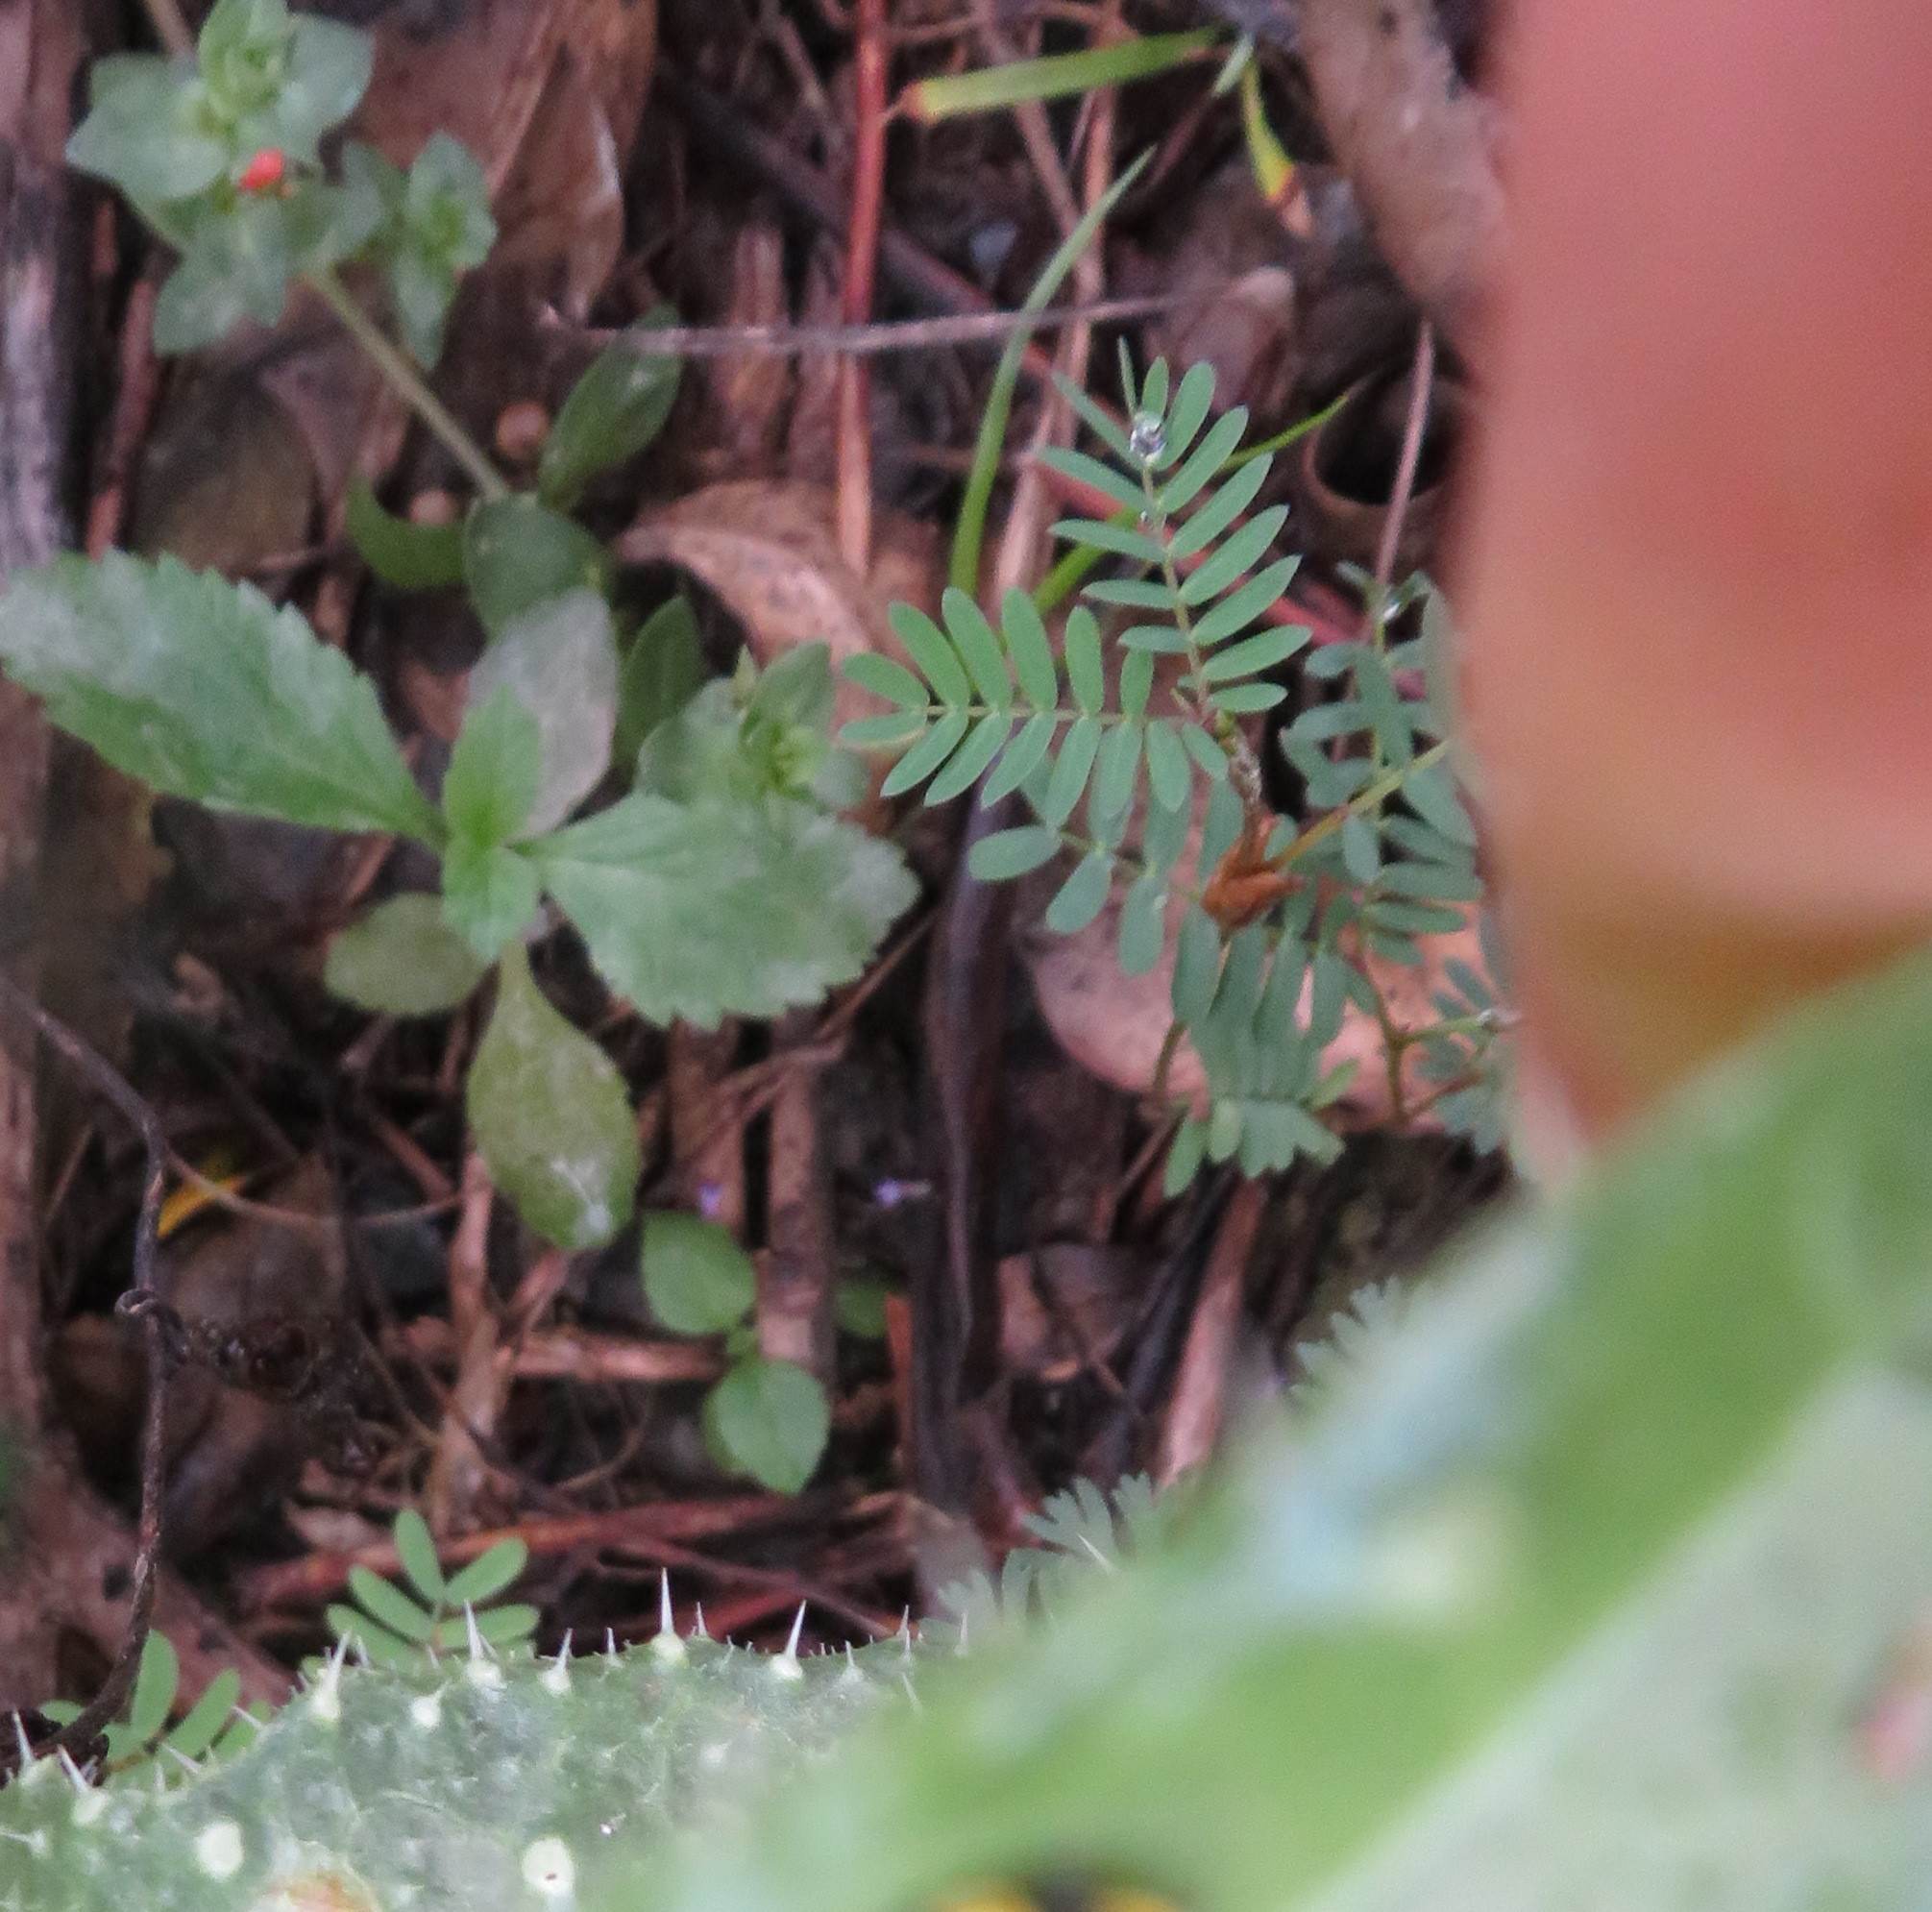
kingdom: Plantae
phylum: Tracheophyta
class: Magnoliopsida
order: Fabales
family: Fabaceae
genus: Paraserianthes
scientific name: Paraserianthes lophantha
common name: Plume albizia
